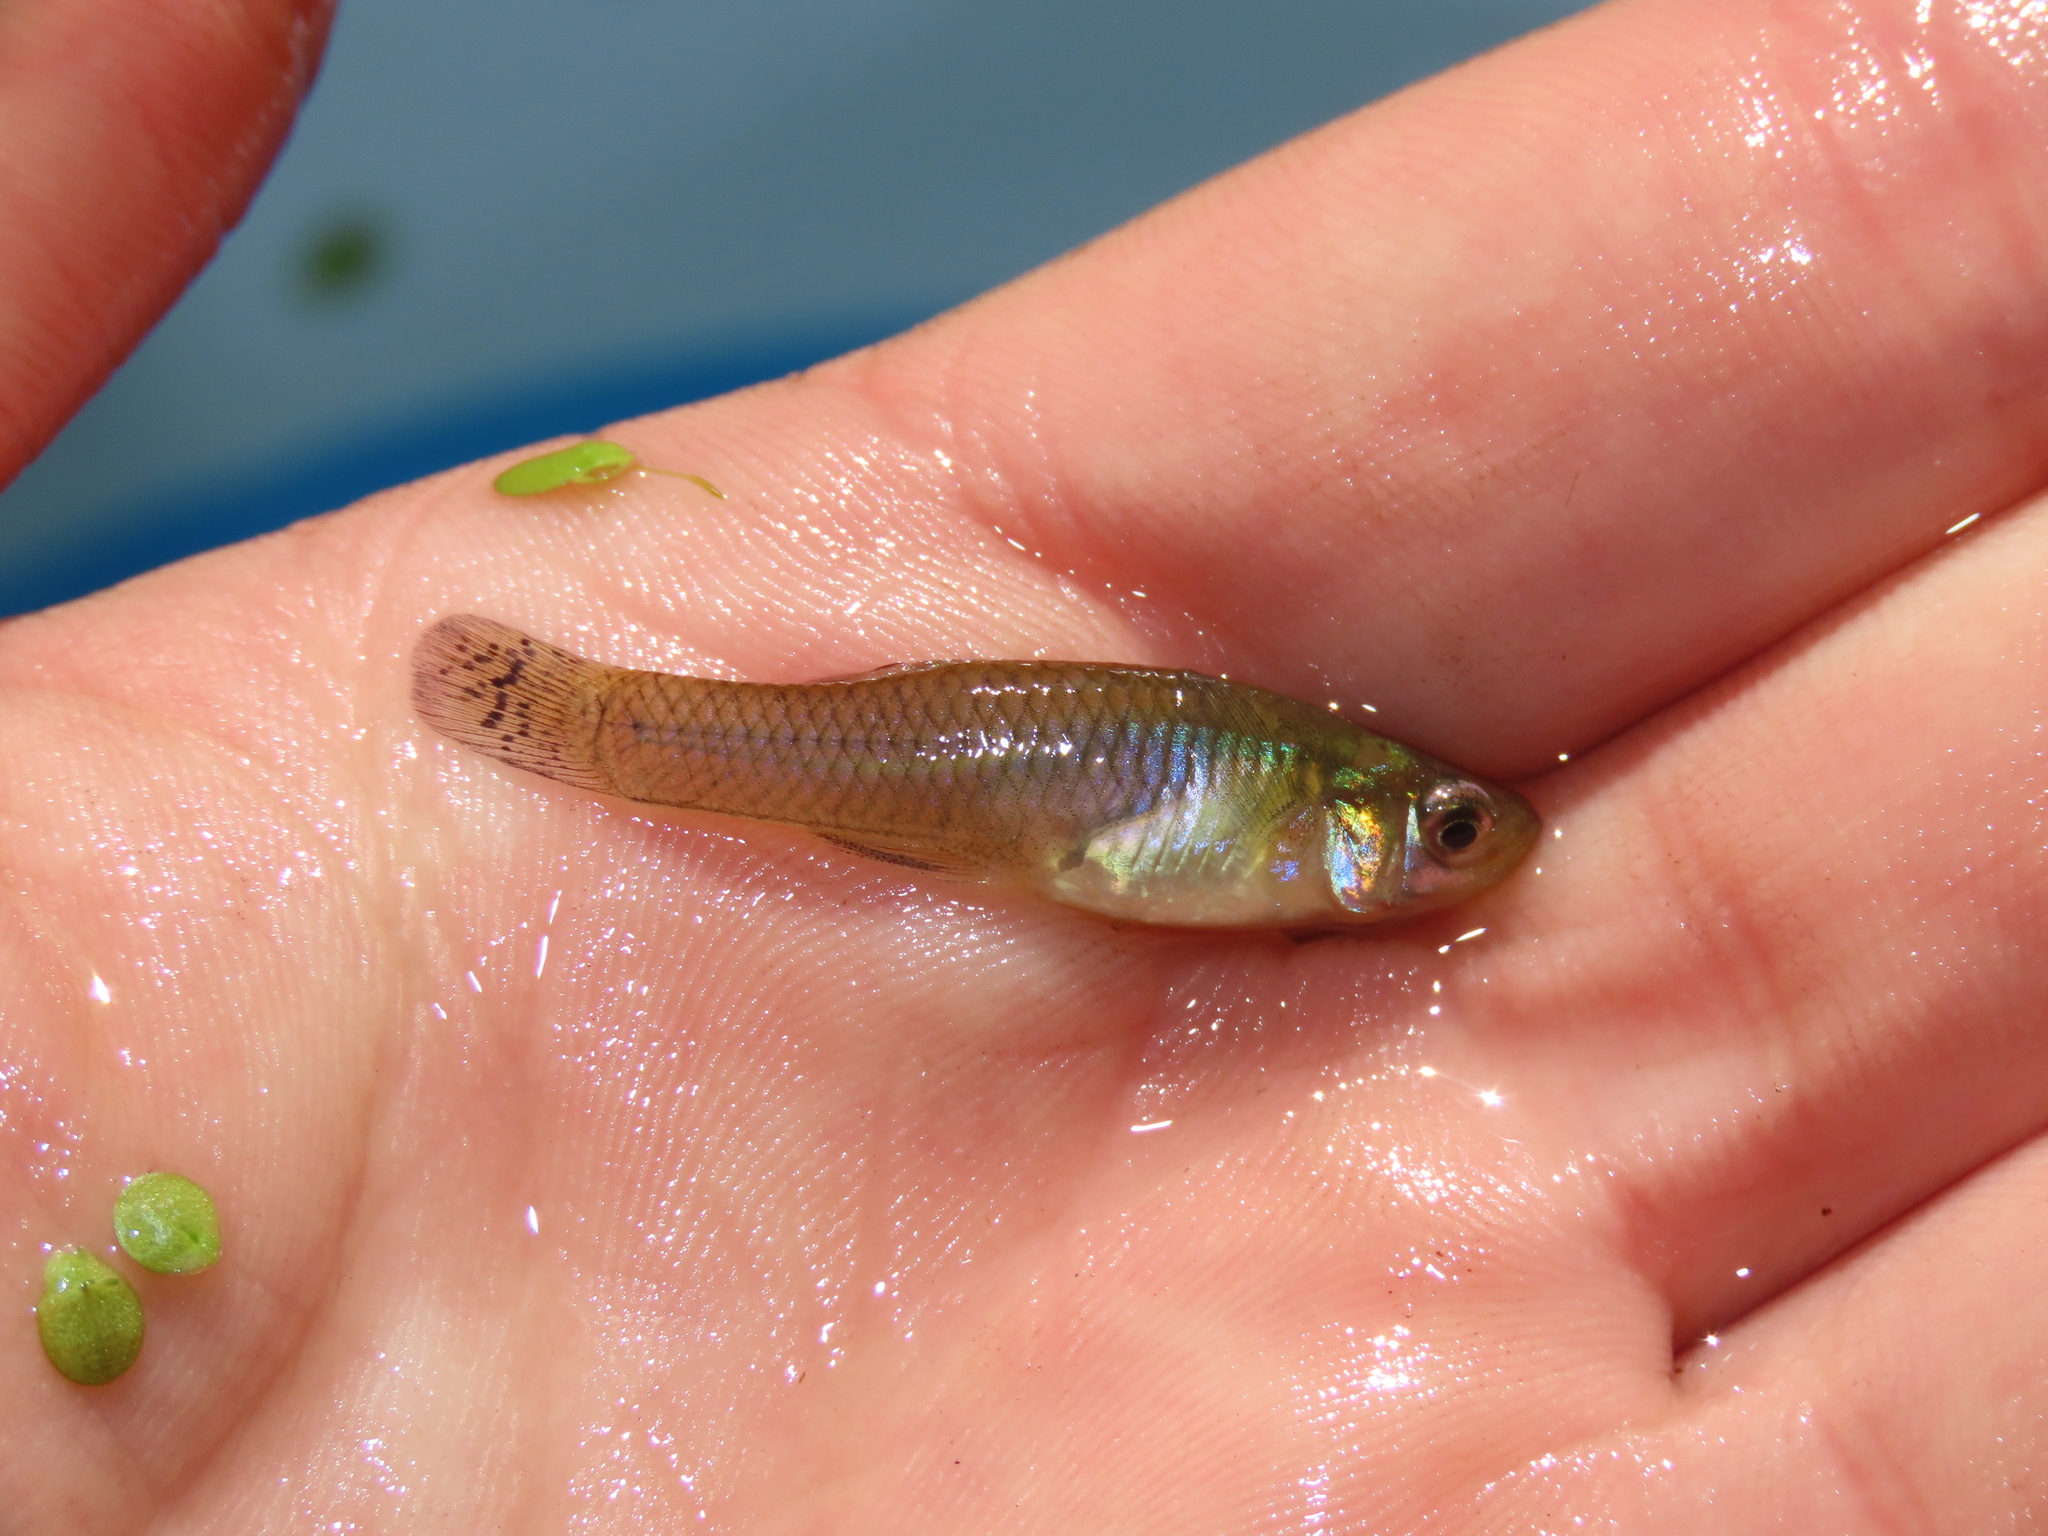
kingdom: Animalia
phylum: Chordata
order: Cyprinodontiformes
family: Poeciliidae
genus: Gambusia
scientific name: Gambusia holbrooki
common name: Eastern mosquitofish
